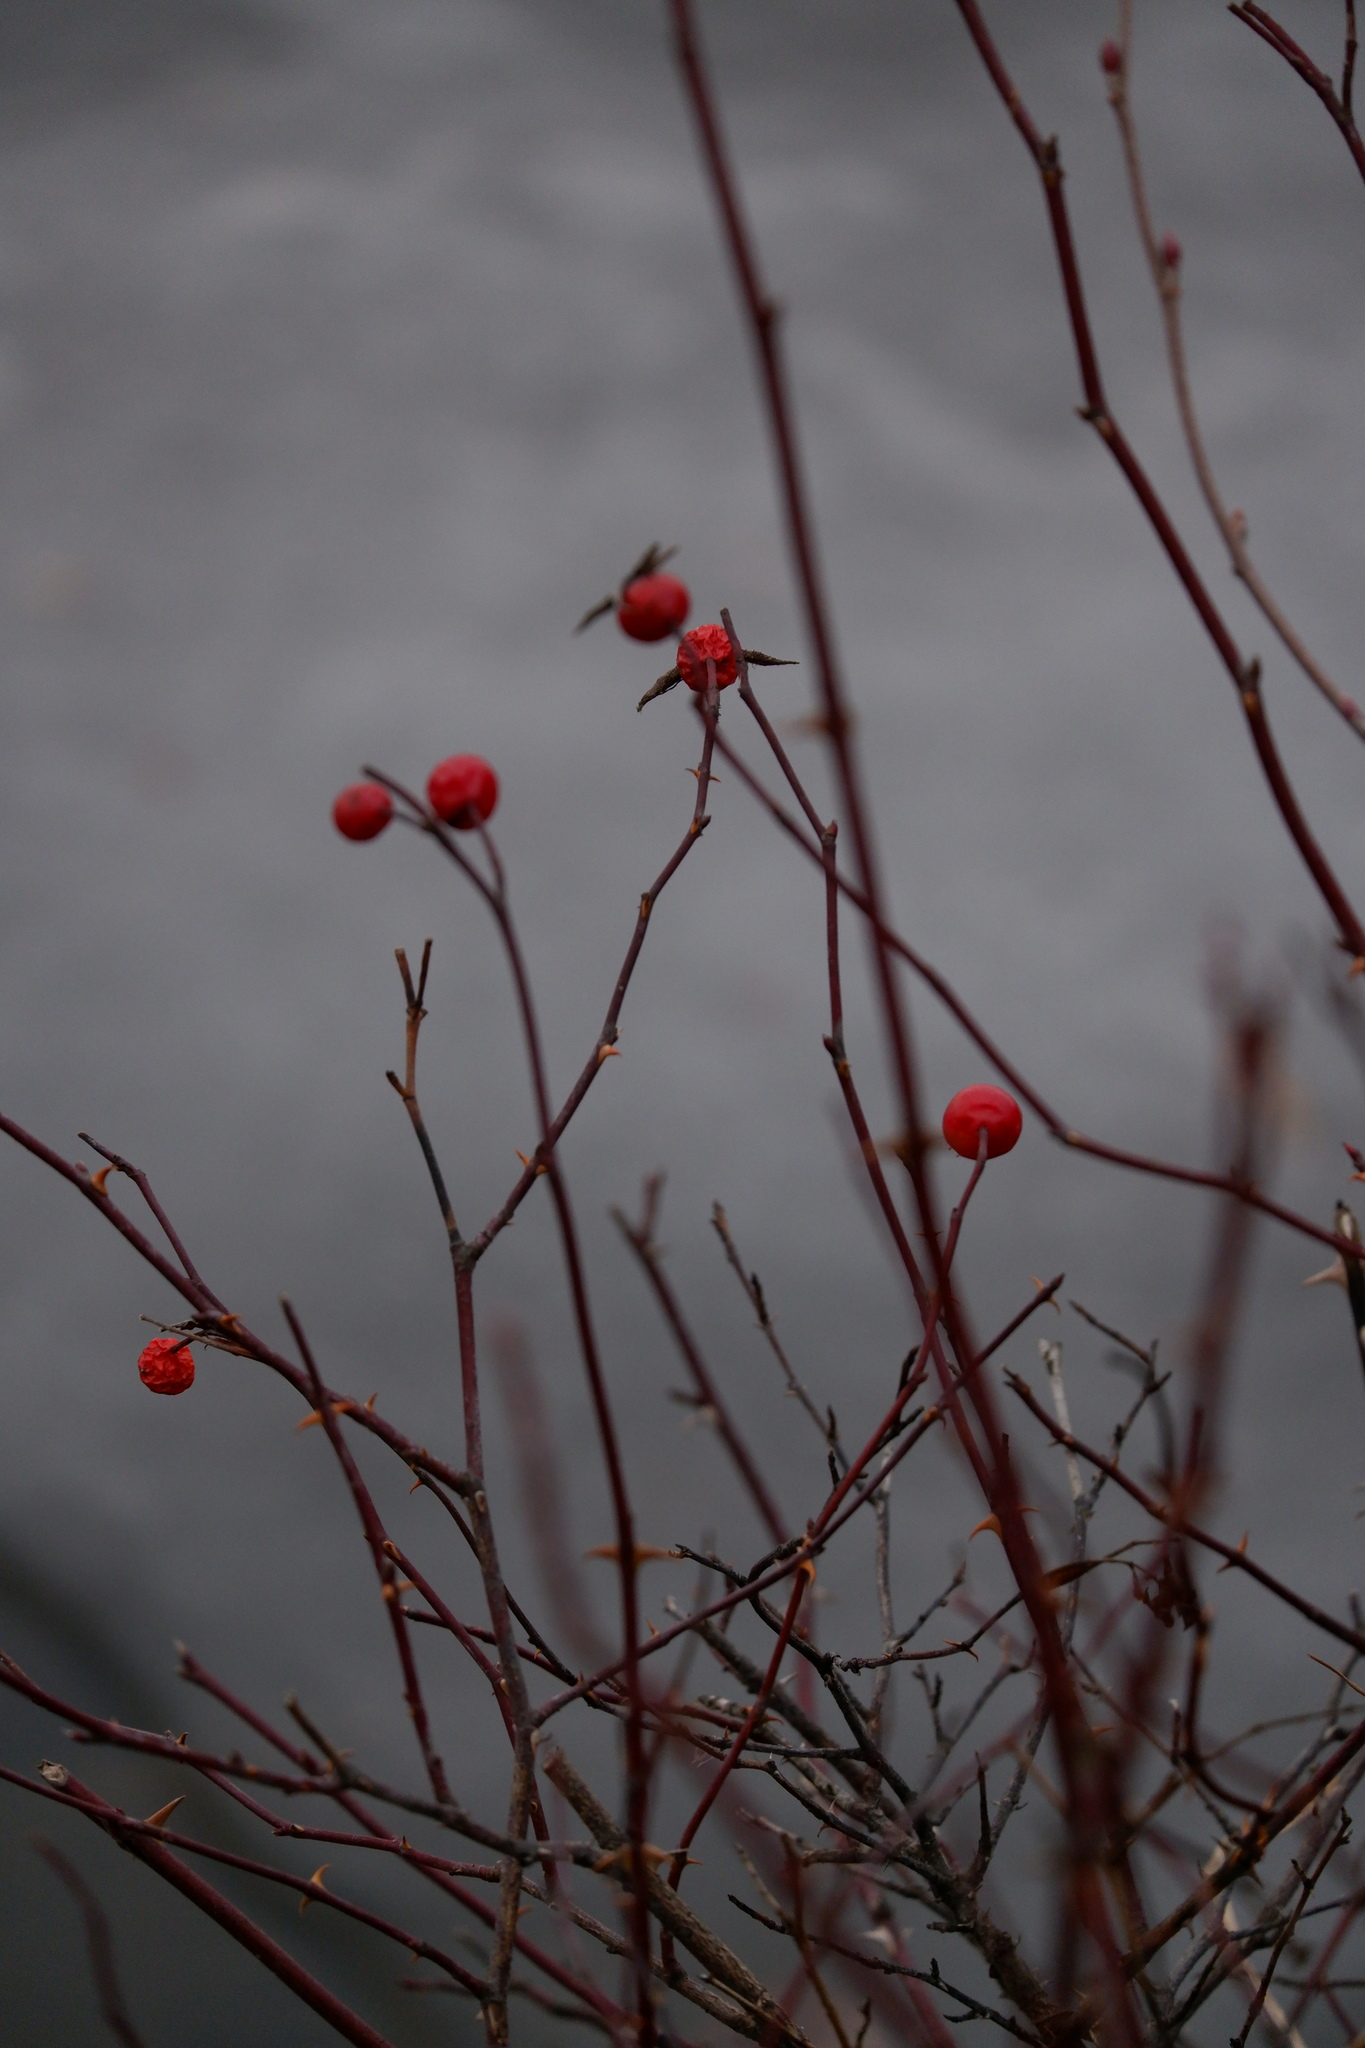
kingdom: Plantae
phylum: Tracheophyta
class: Magnoliopsida
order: Rosales
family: Rosaceae
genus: Rosa
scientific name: Rosa palustris
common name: Swamp rose
